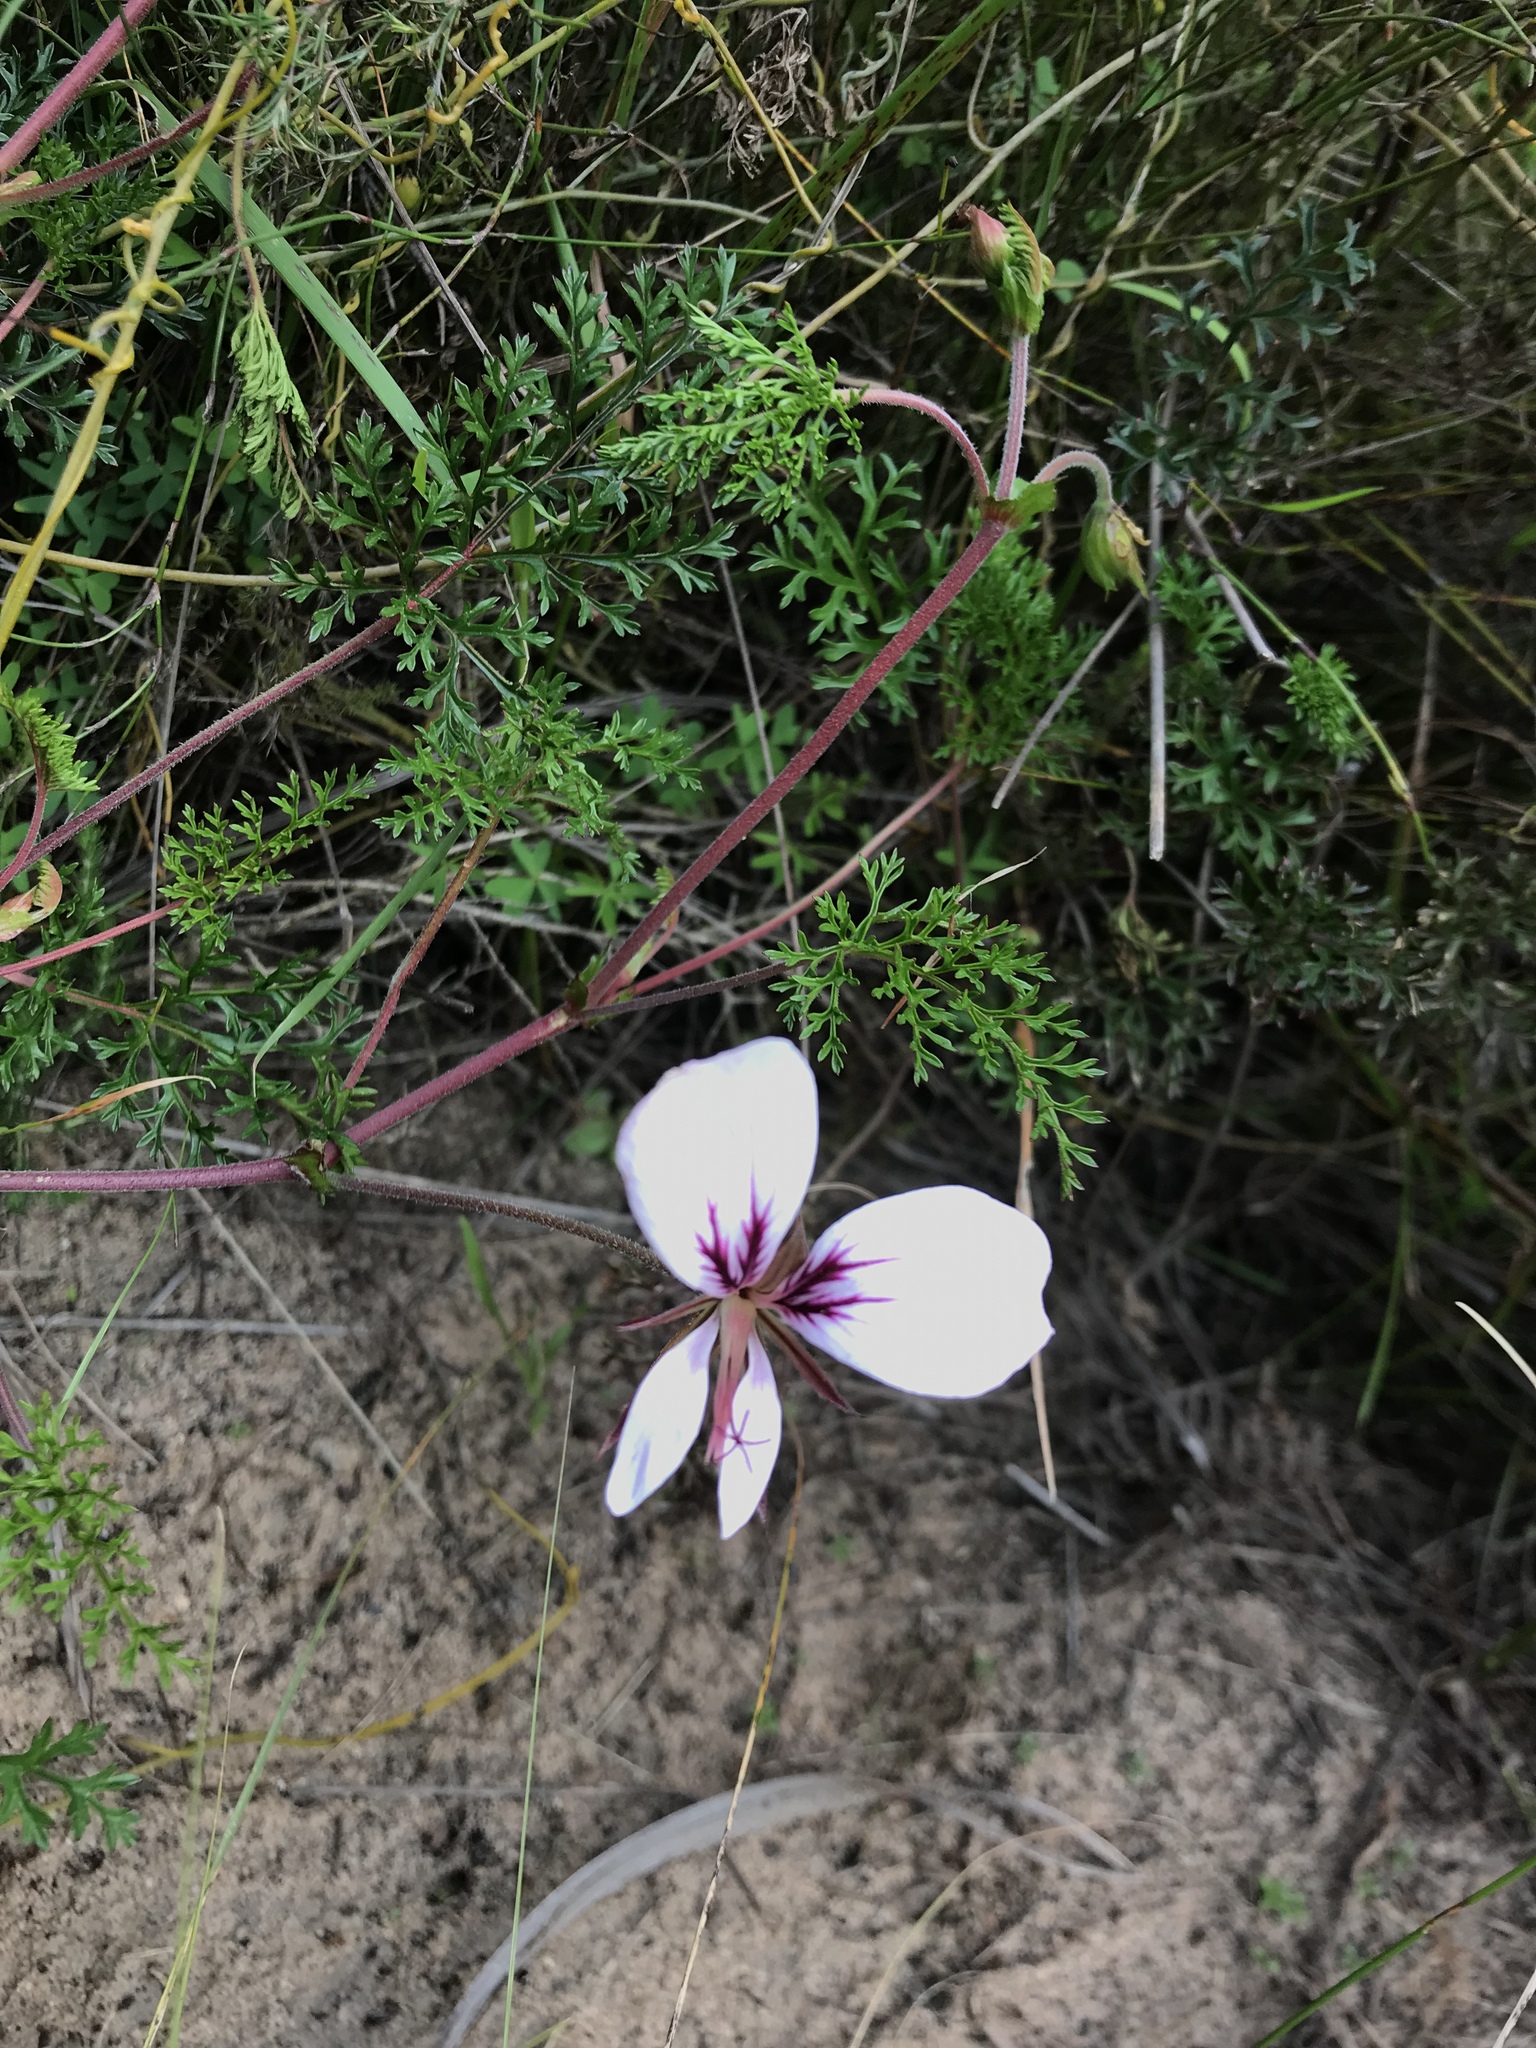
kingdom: Plantae
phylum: Tracheophyta
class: Magnoliopsida
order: Geraniales
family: Geraniaceae
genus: Pelargonium
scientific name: Pelargonium myrrhifolium
